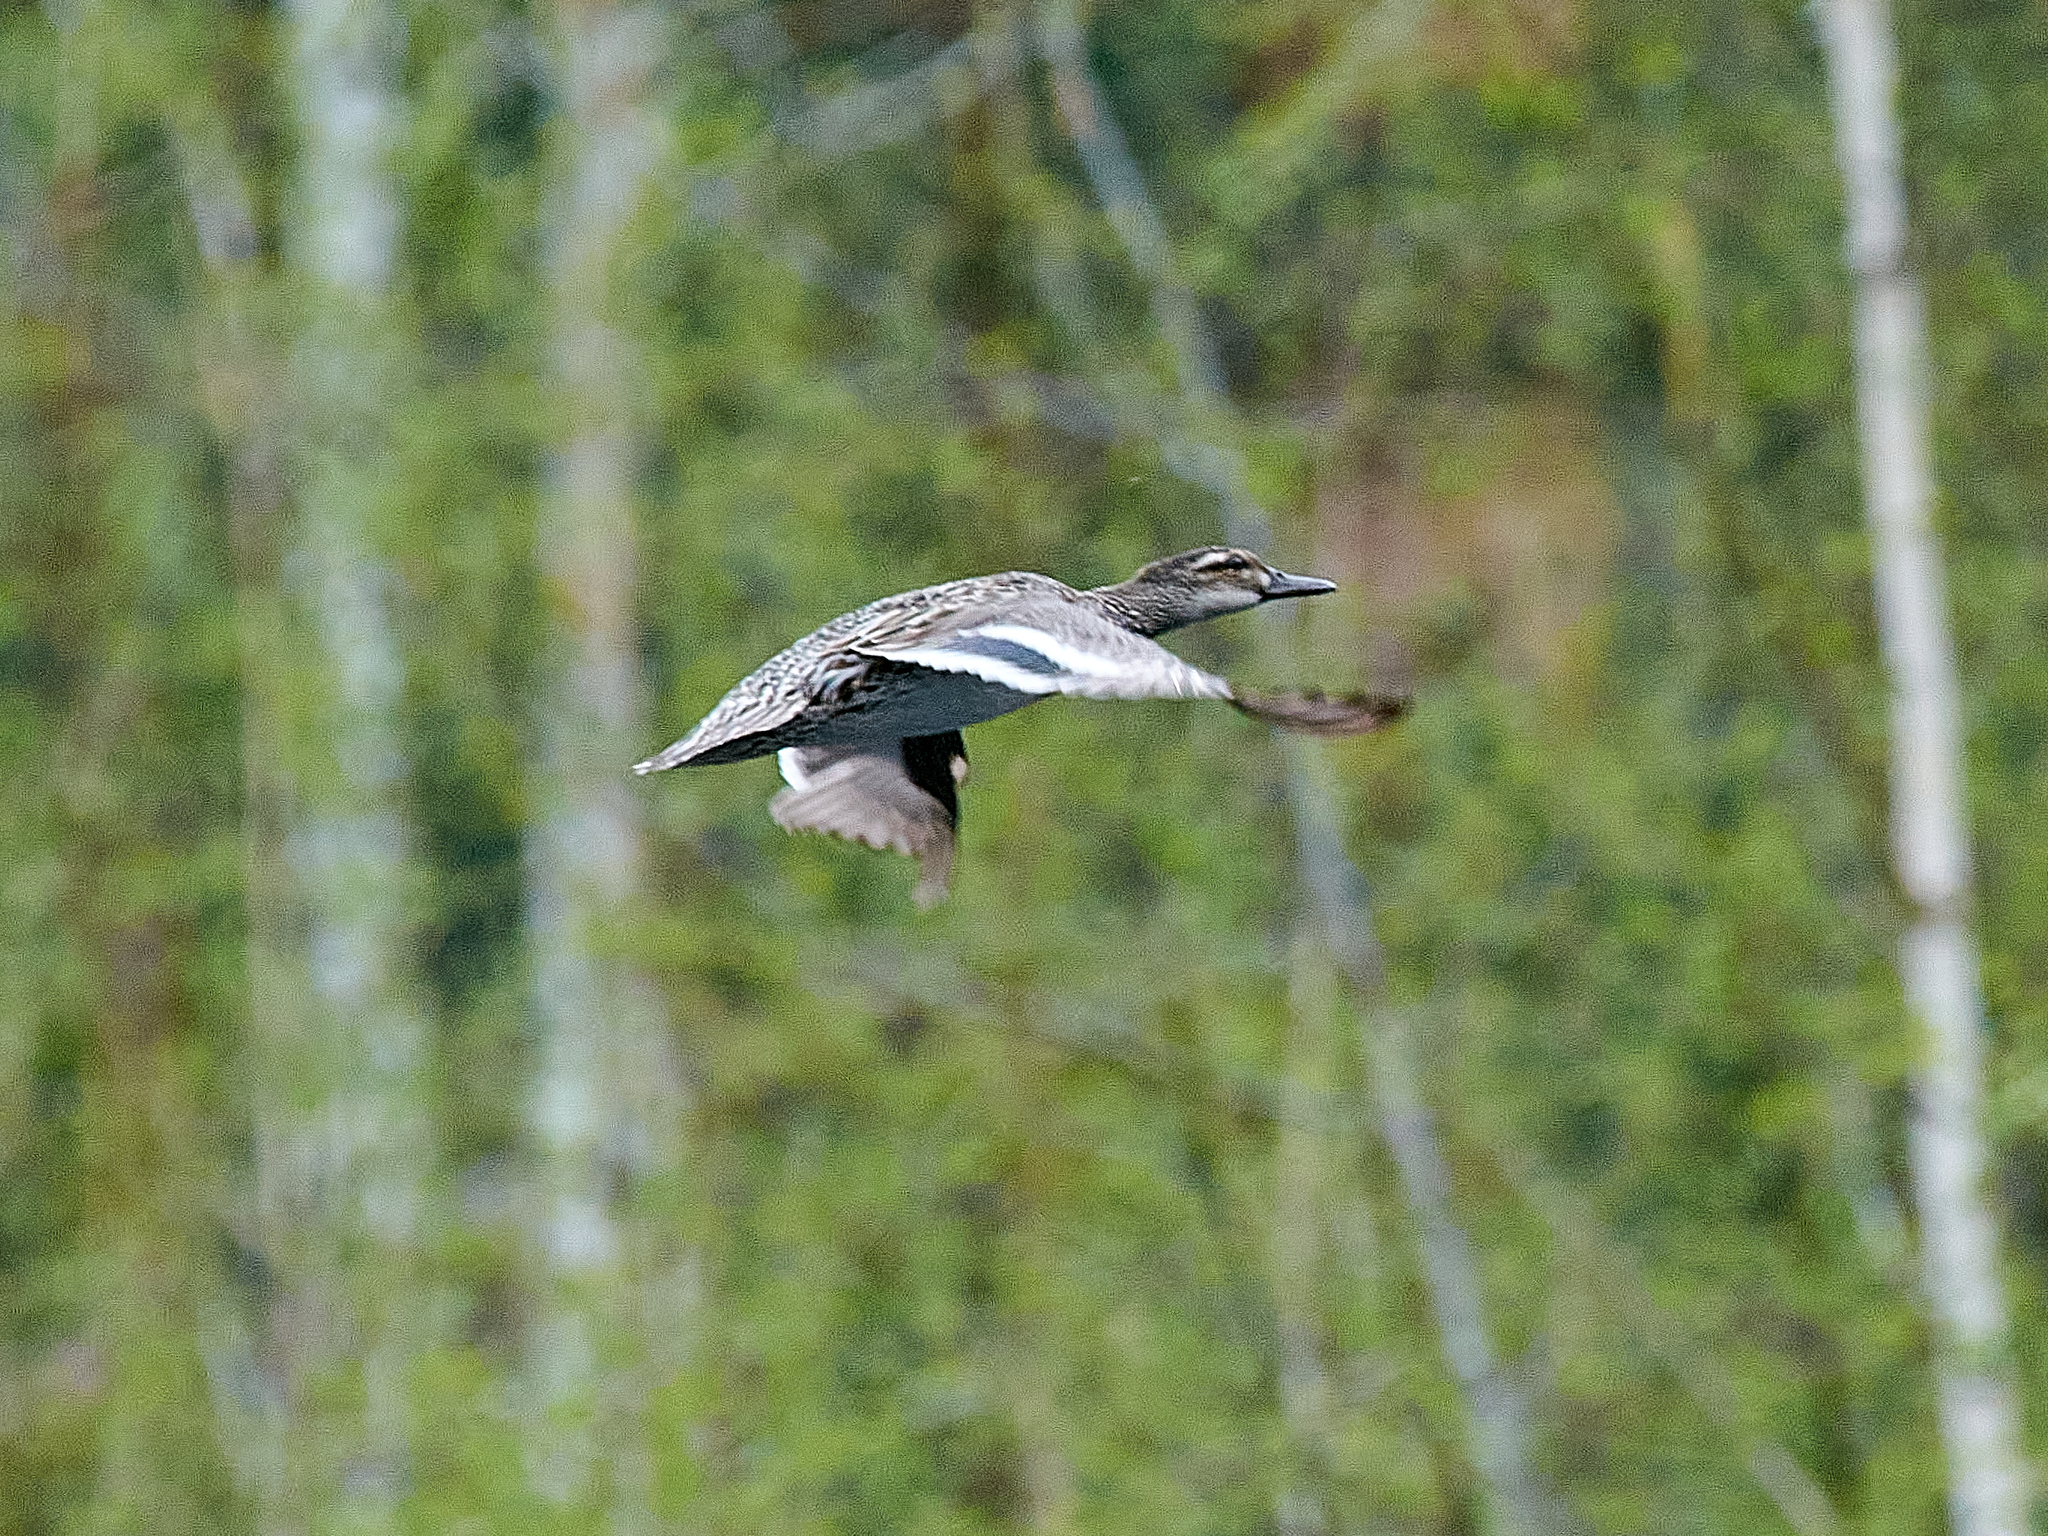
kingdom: Animalia
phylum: Chordata
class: Aves
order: Anseriformes
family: Anatidae
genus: Spatula
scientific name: Spatula querquedula
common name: Garganey
